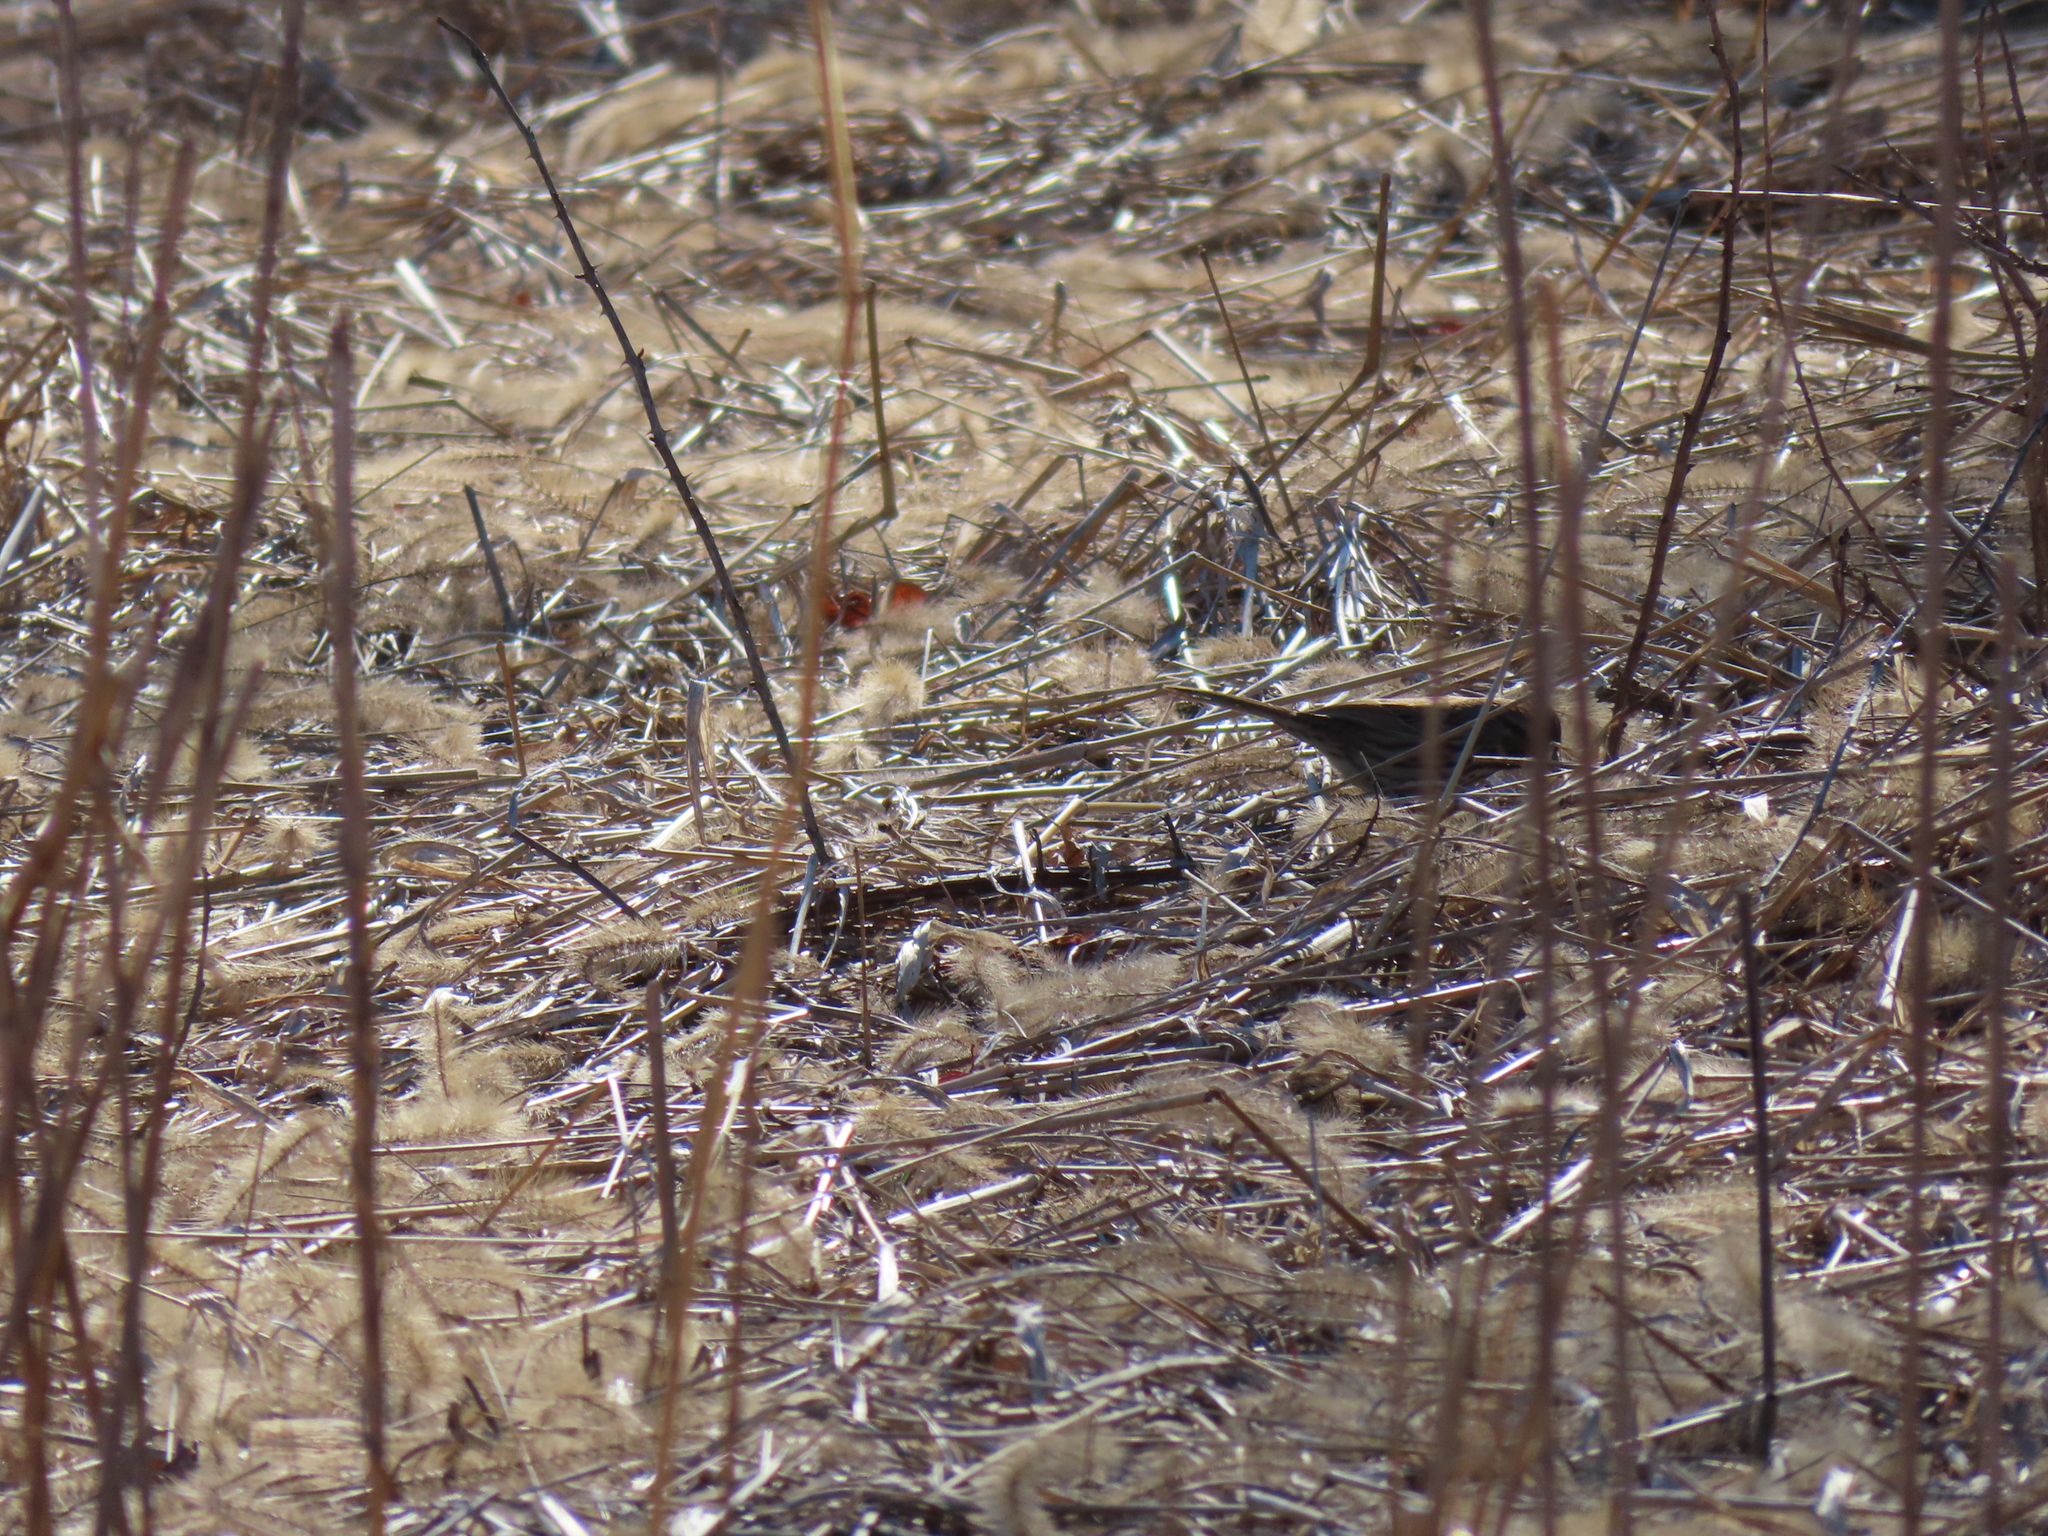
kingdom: Animalia
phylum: Chordata
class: Aves
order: Passeriformes
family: Passerellidae
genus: Melospiza
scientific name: Melospiza melodia
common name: Song sparrow
